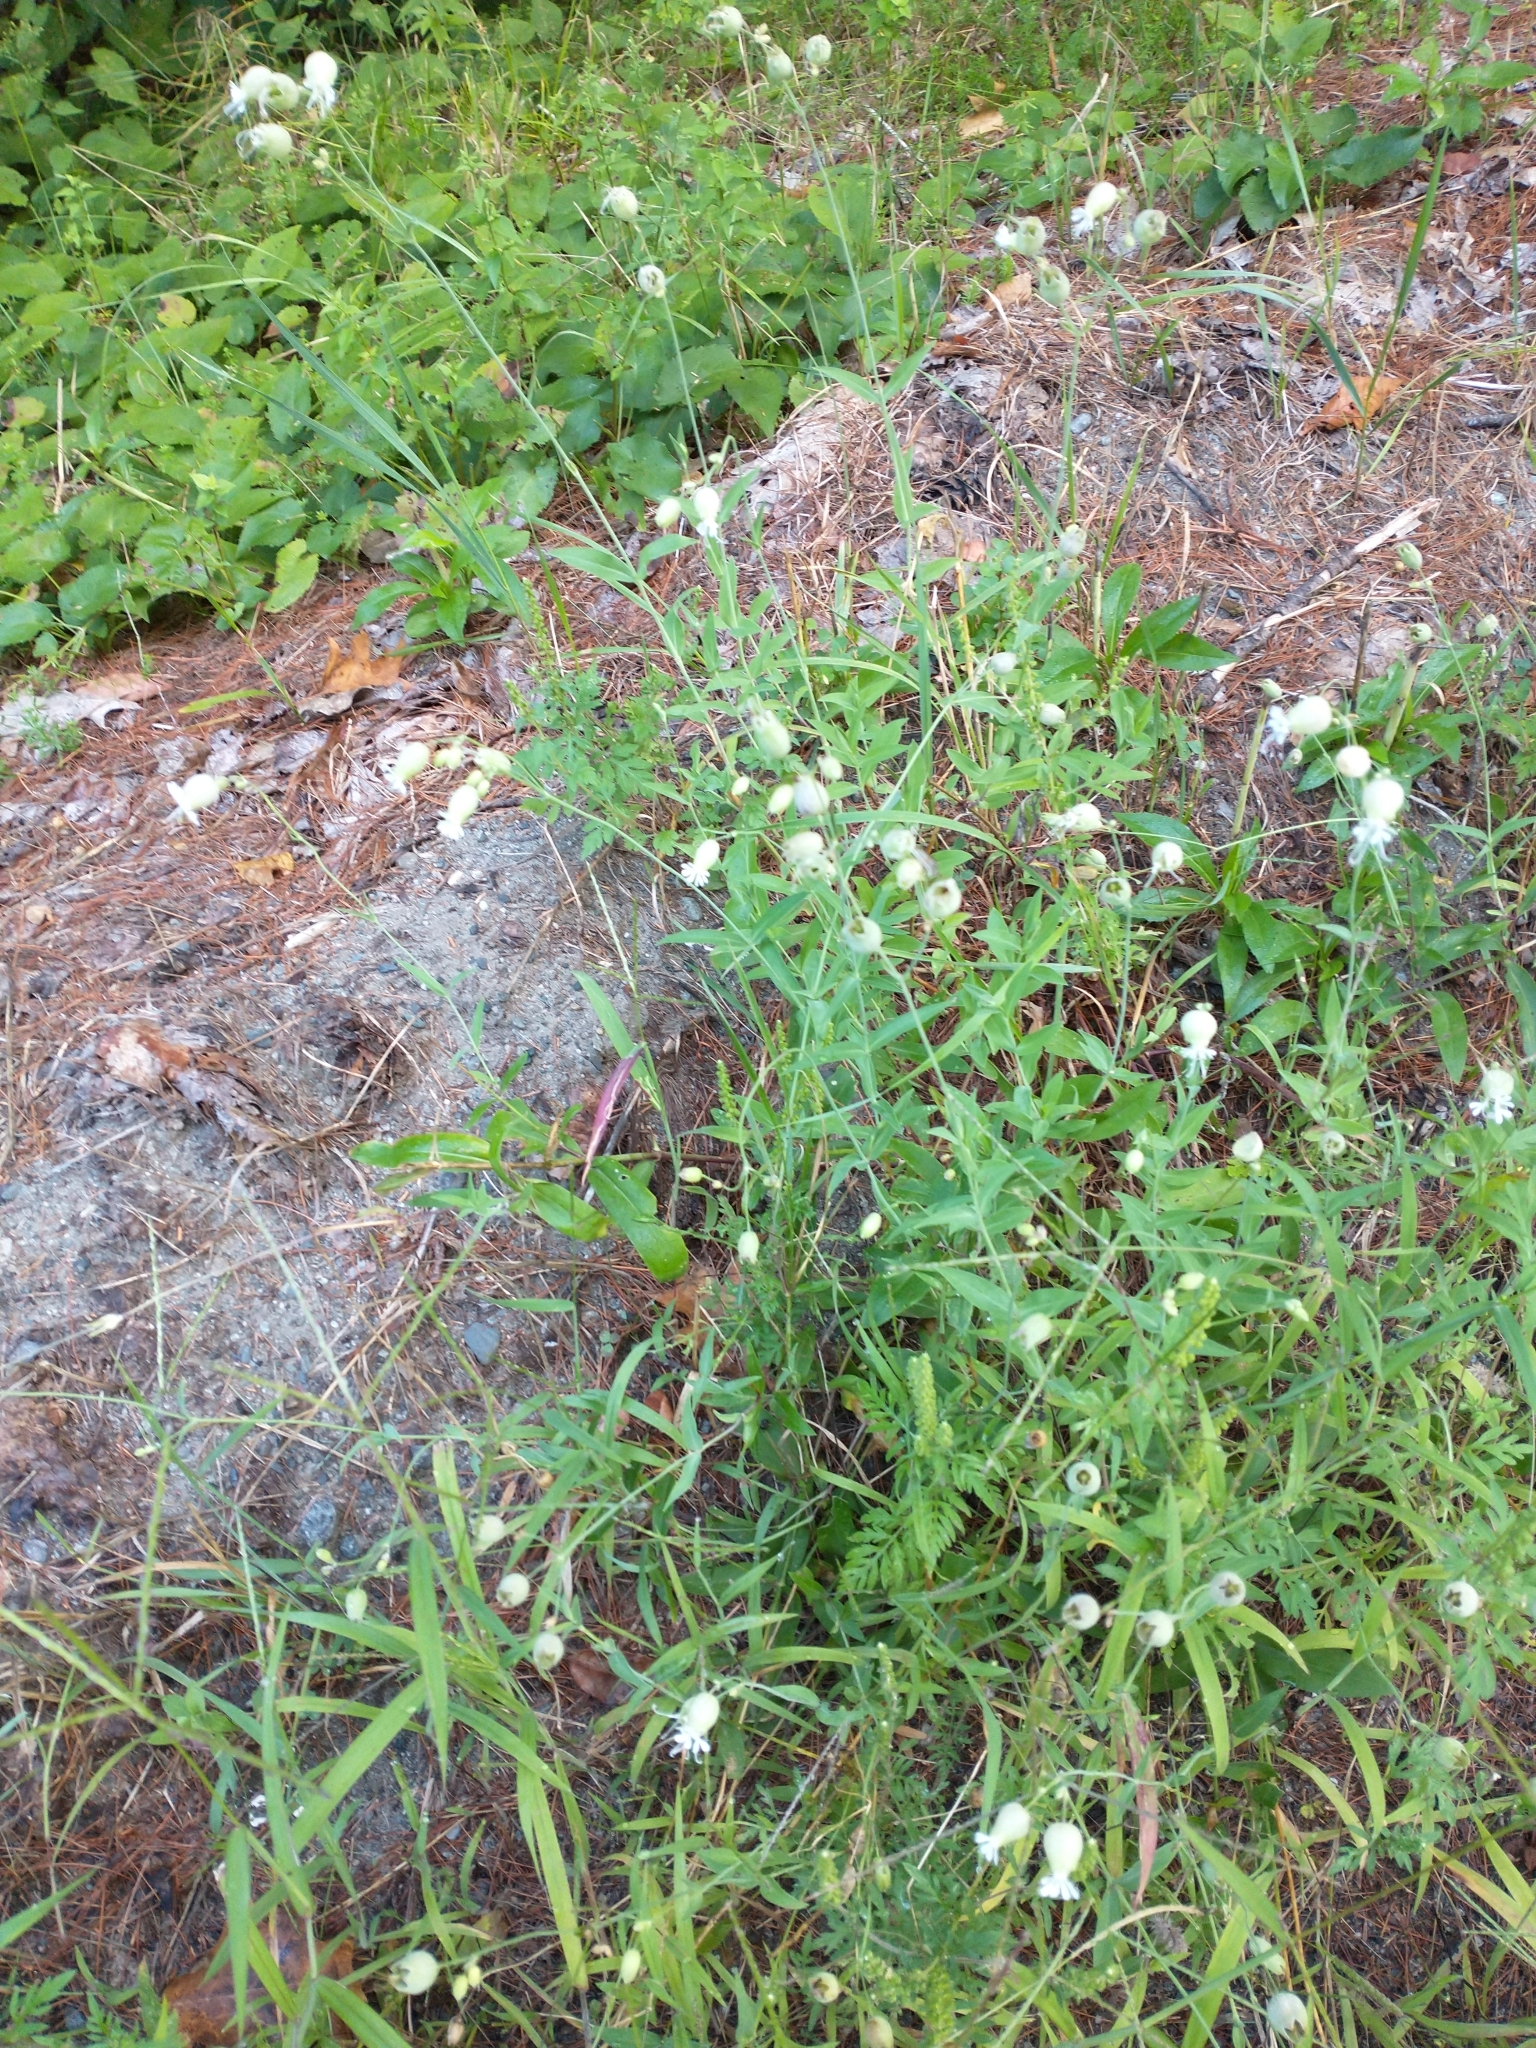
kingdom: Plantae
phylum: Tracheophyta
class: Magnoliopsida
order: Caryophyllales
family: Caryophyllaceae
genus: Silene
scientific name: Silene vulgaris
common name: Bladder campion
